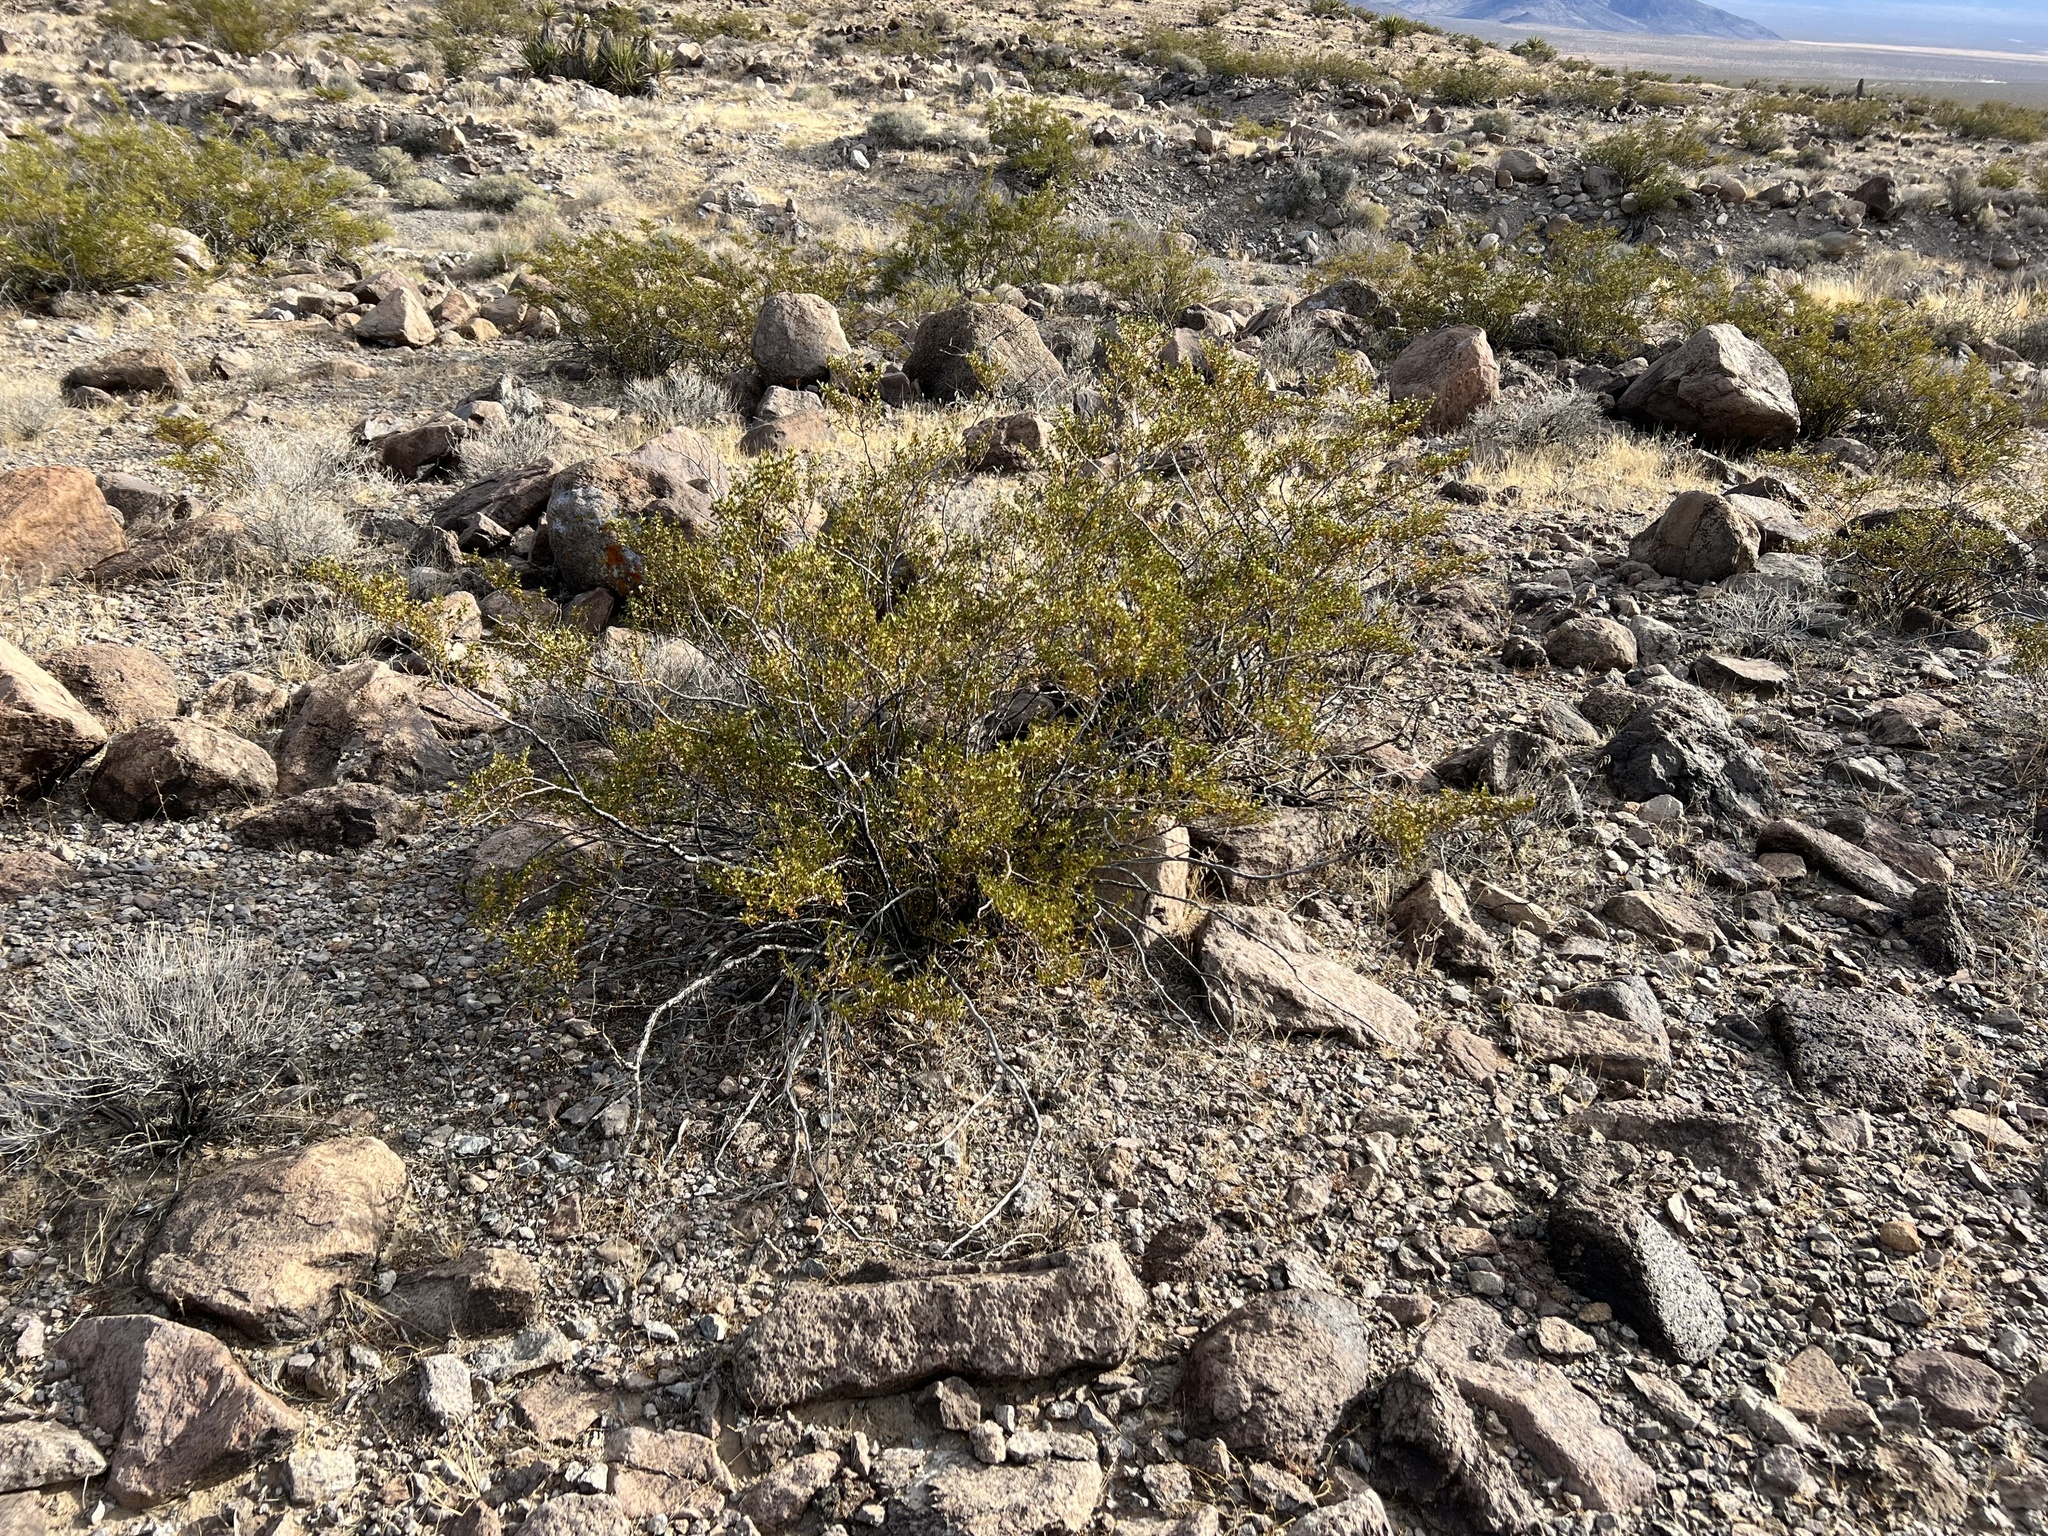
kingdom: Plantae
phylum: Tracheophyta
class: Magnoliopsida
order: Zygophyllales
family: Zygophyllaceae
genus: Larrea
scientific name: Larrea tridentata
